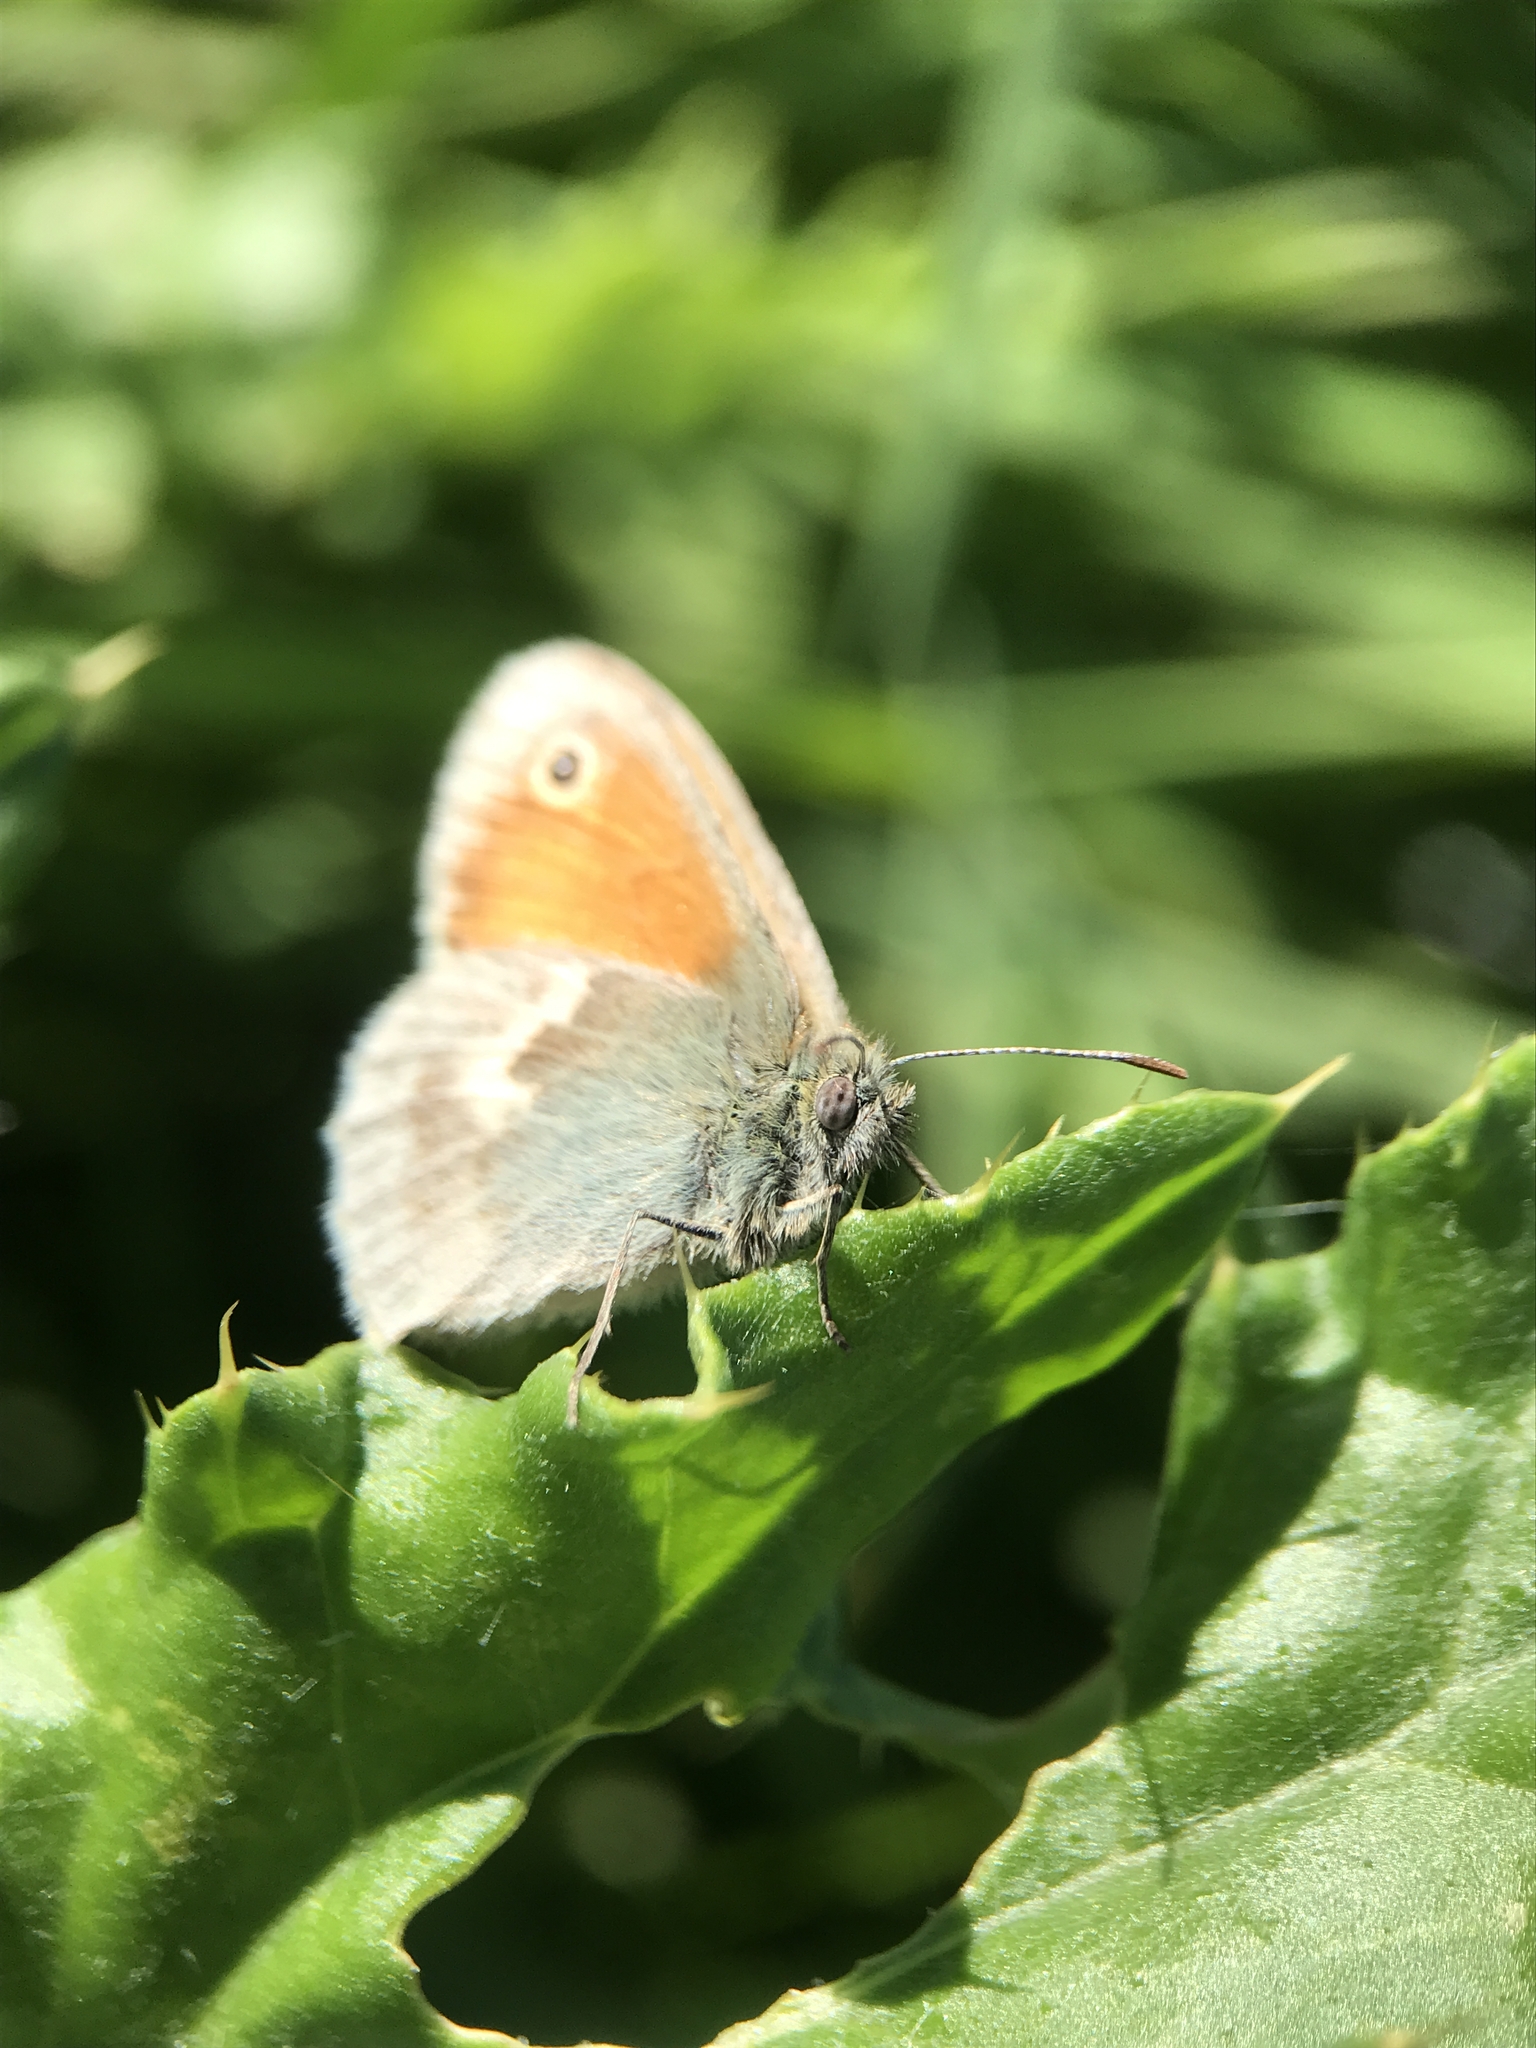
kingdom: Animalia
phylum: Arthropoda
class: Insecta
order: Lepidoptera
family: Nymphalidae
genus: Coenonympha
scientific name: Coenonympha pamphilus
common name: Small heath
